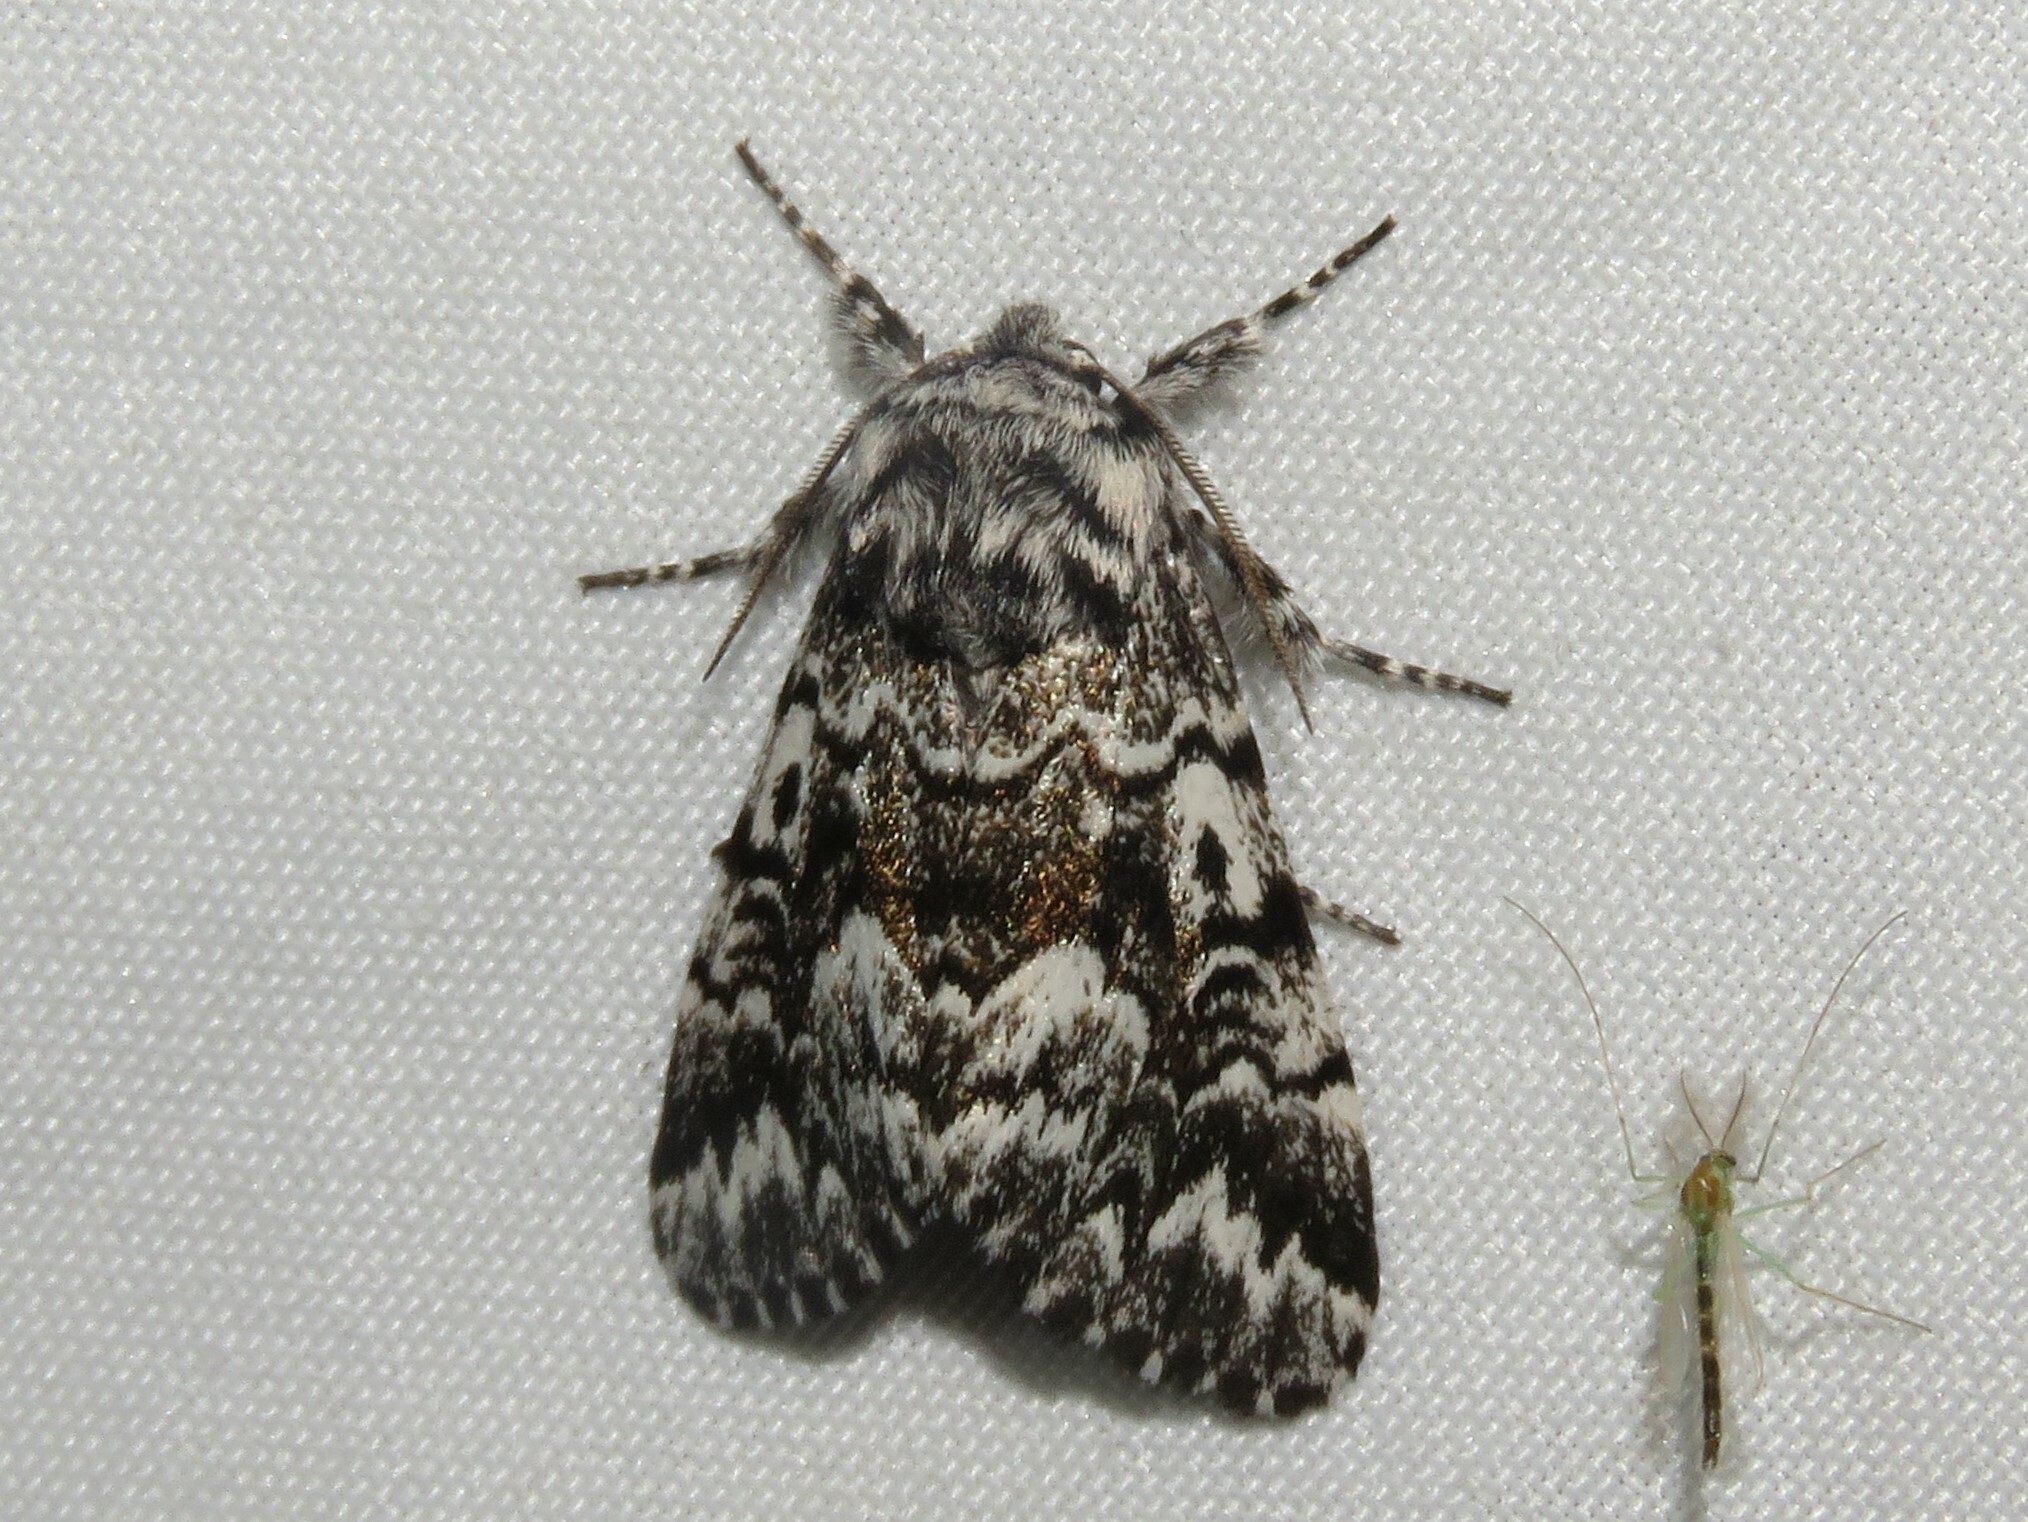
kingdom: Animalia
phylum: Arthropoda
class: Insecta
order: Lepidoptera
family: Noctuidae
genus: Panthea
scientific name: Panthea acronyctoides
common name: Black zigzag moth
